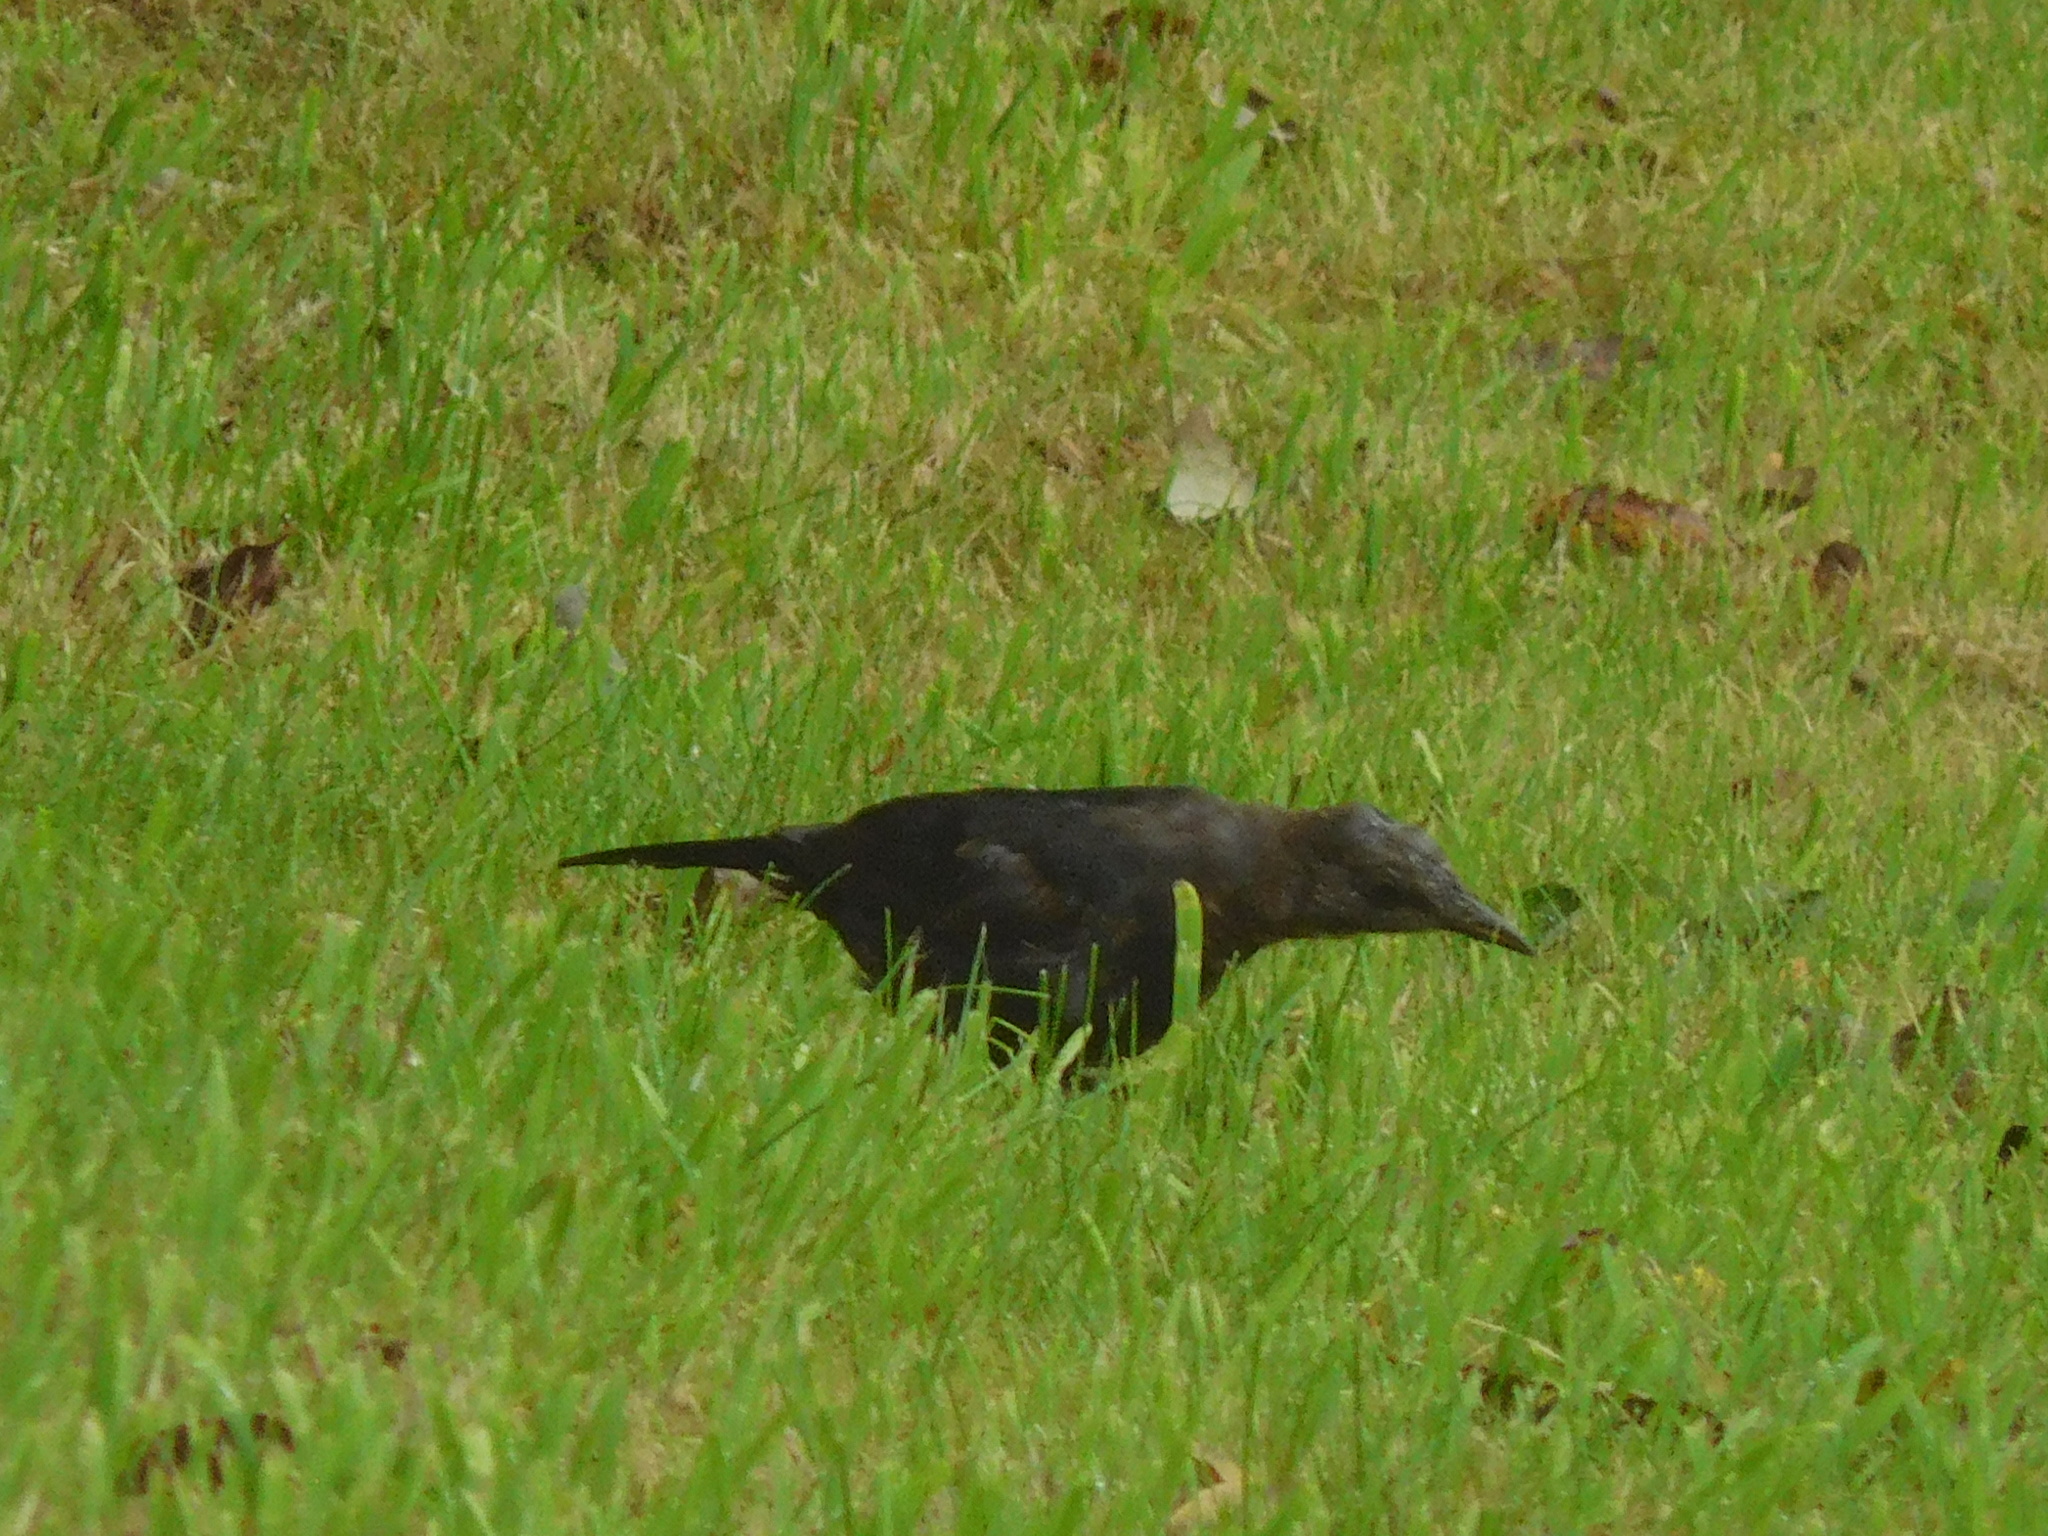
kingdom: Animalia
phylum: Chordata
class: Aves
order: Passeriformes
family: Turdidae
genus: Turdus
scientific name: Turdus merula
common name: Common blackbird
